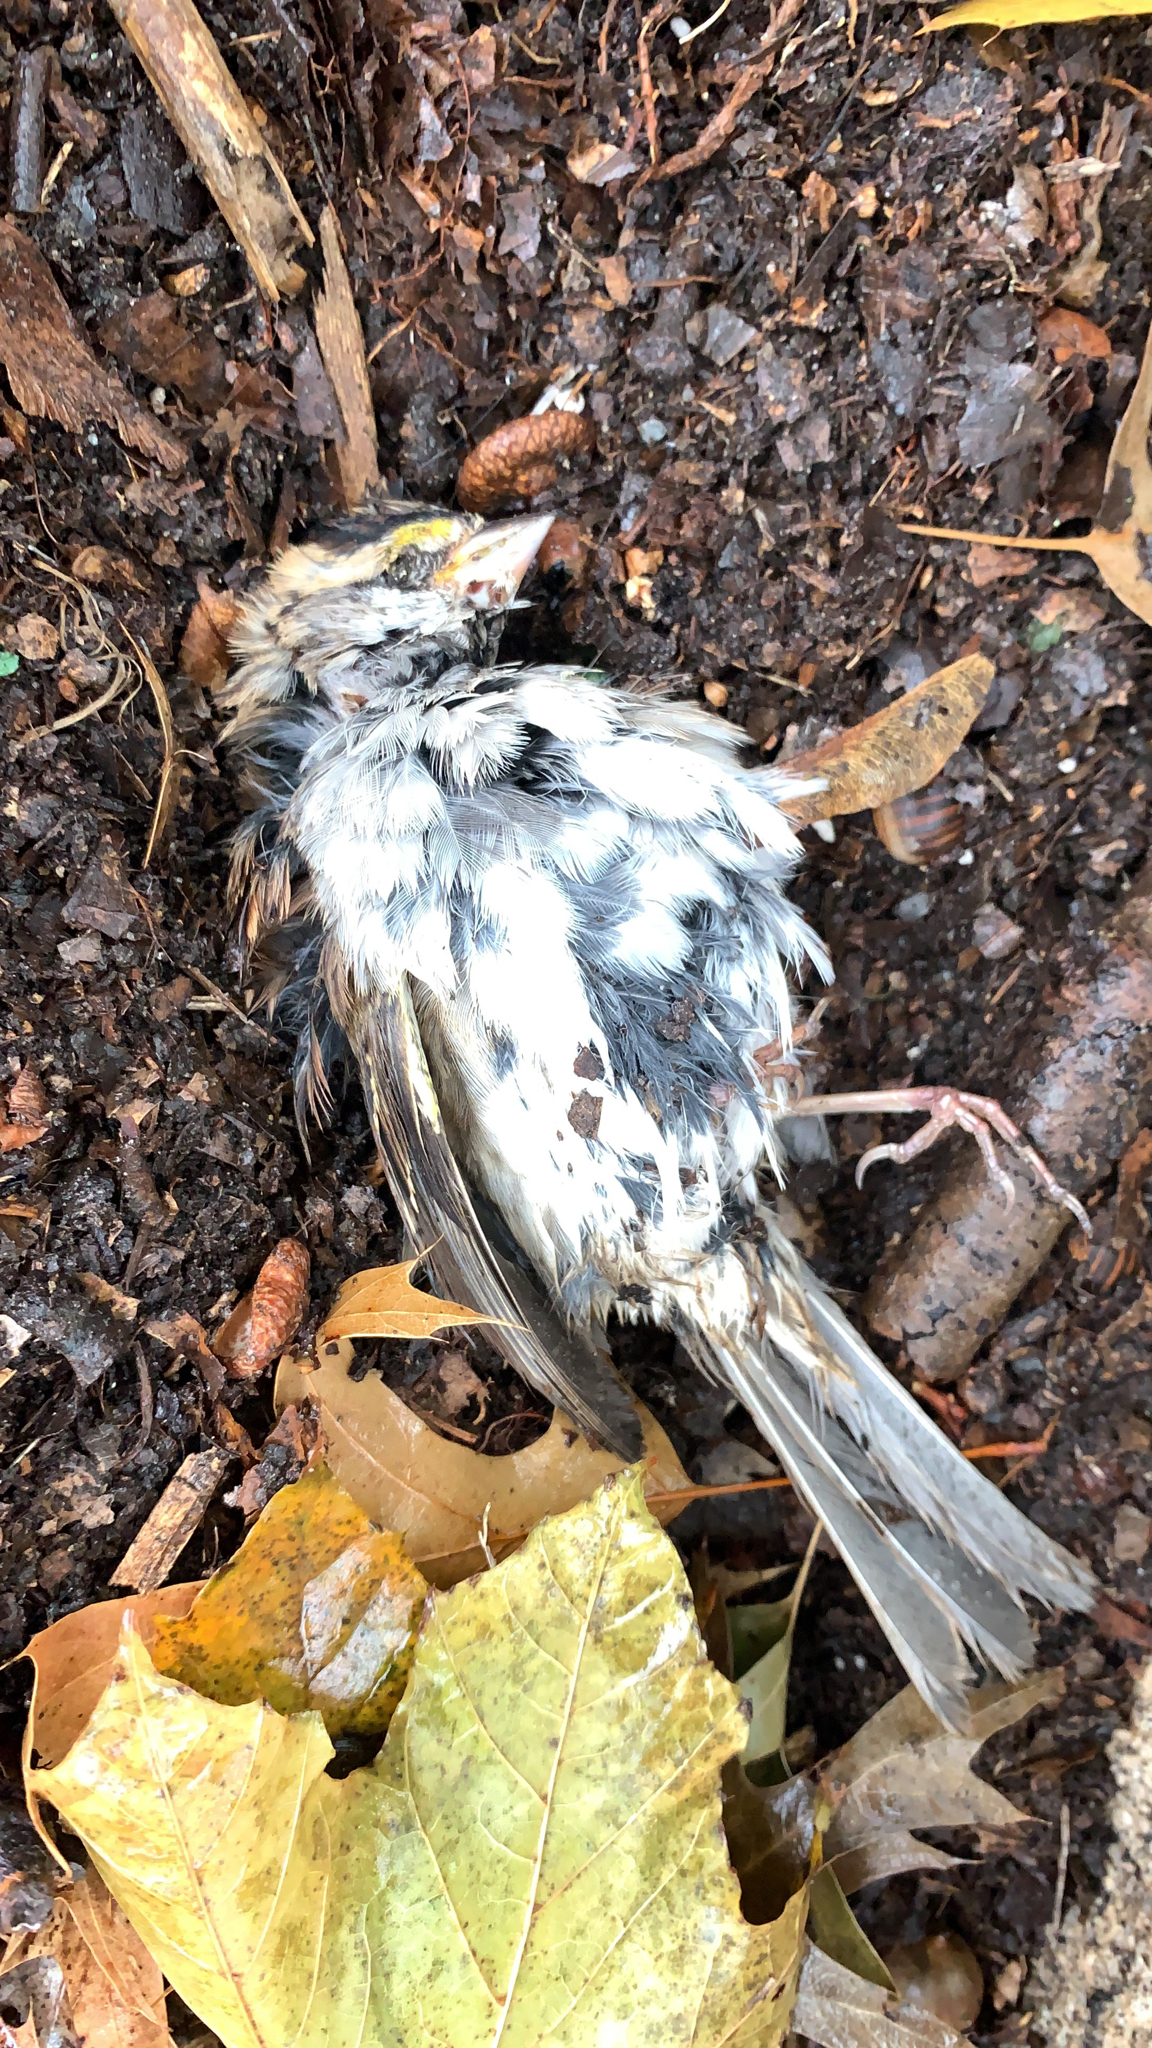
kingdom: Animalia
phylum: Chordata
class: Aves
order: Passeriformes
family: Passerellidae
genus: Zonotrichia
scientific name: Zonotrichia albicollis
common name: White-throated sparrow
